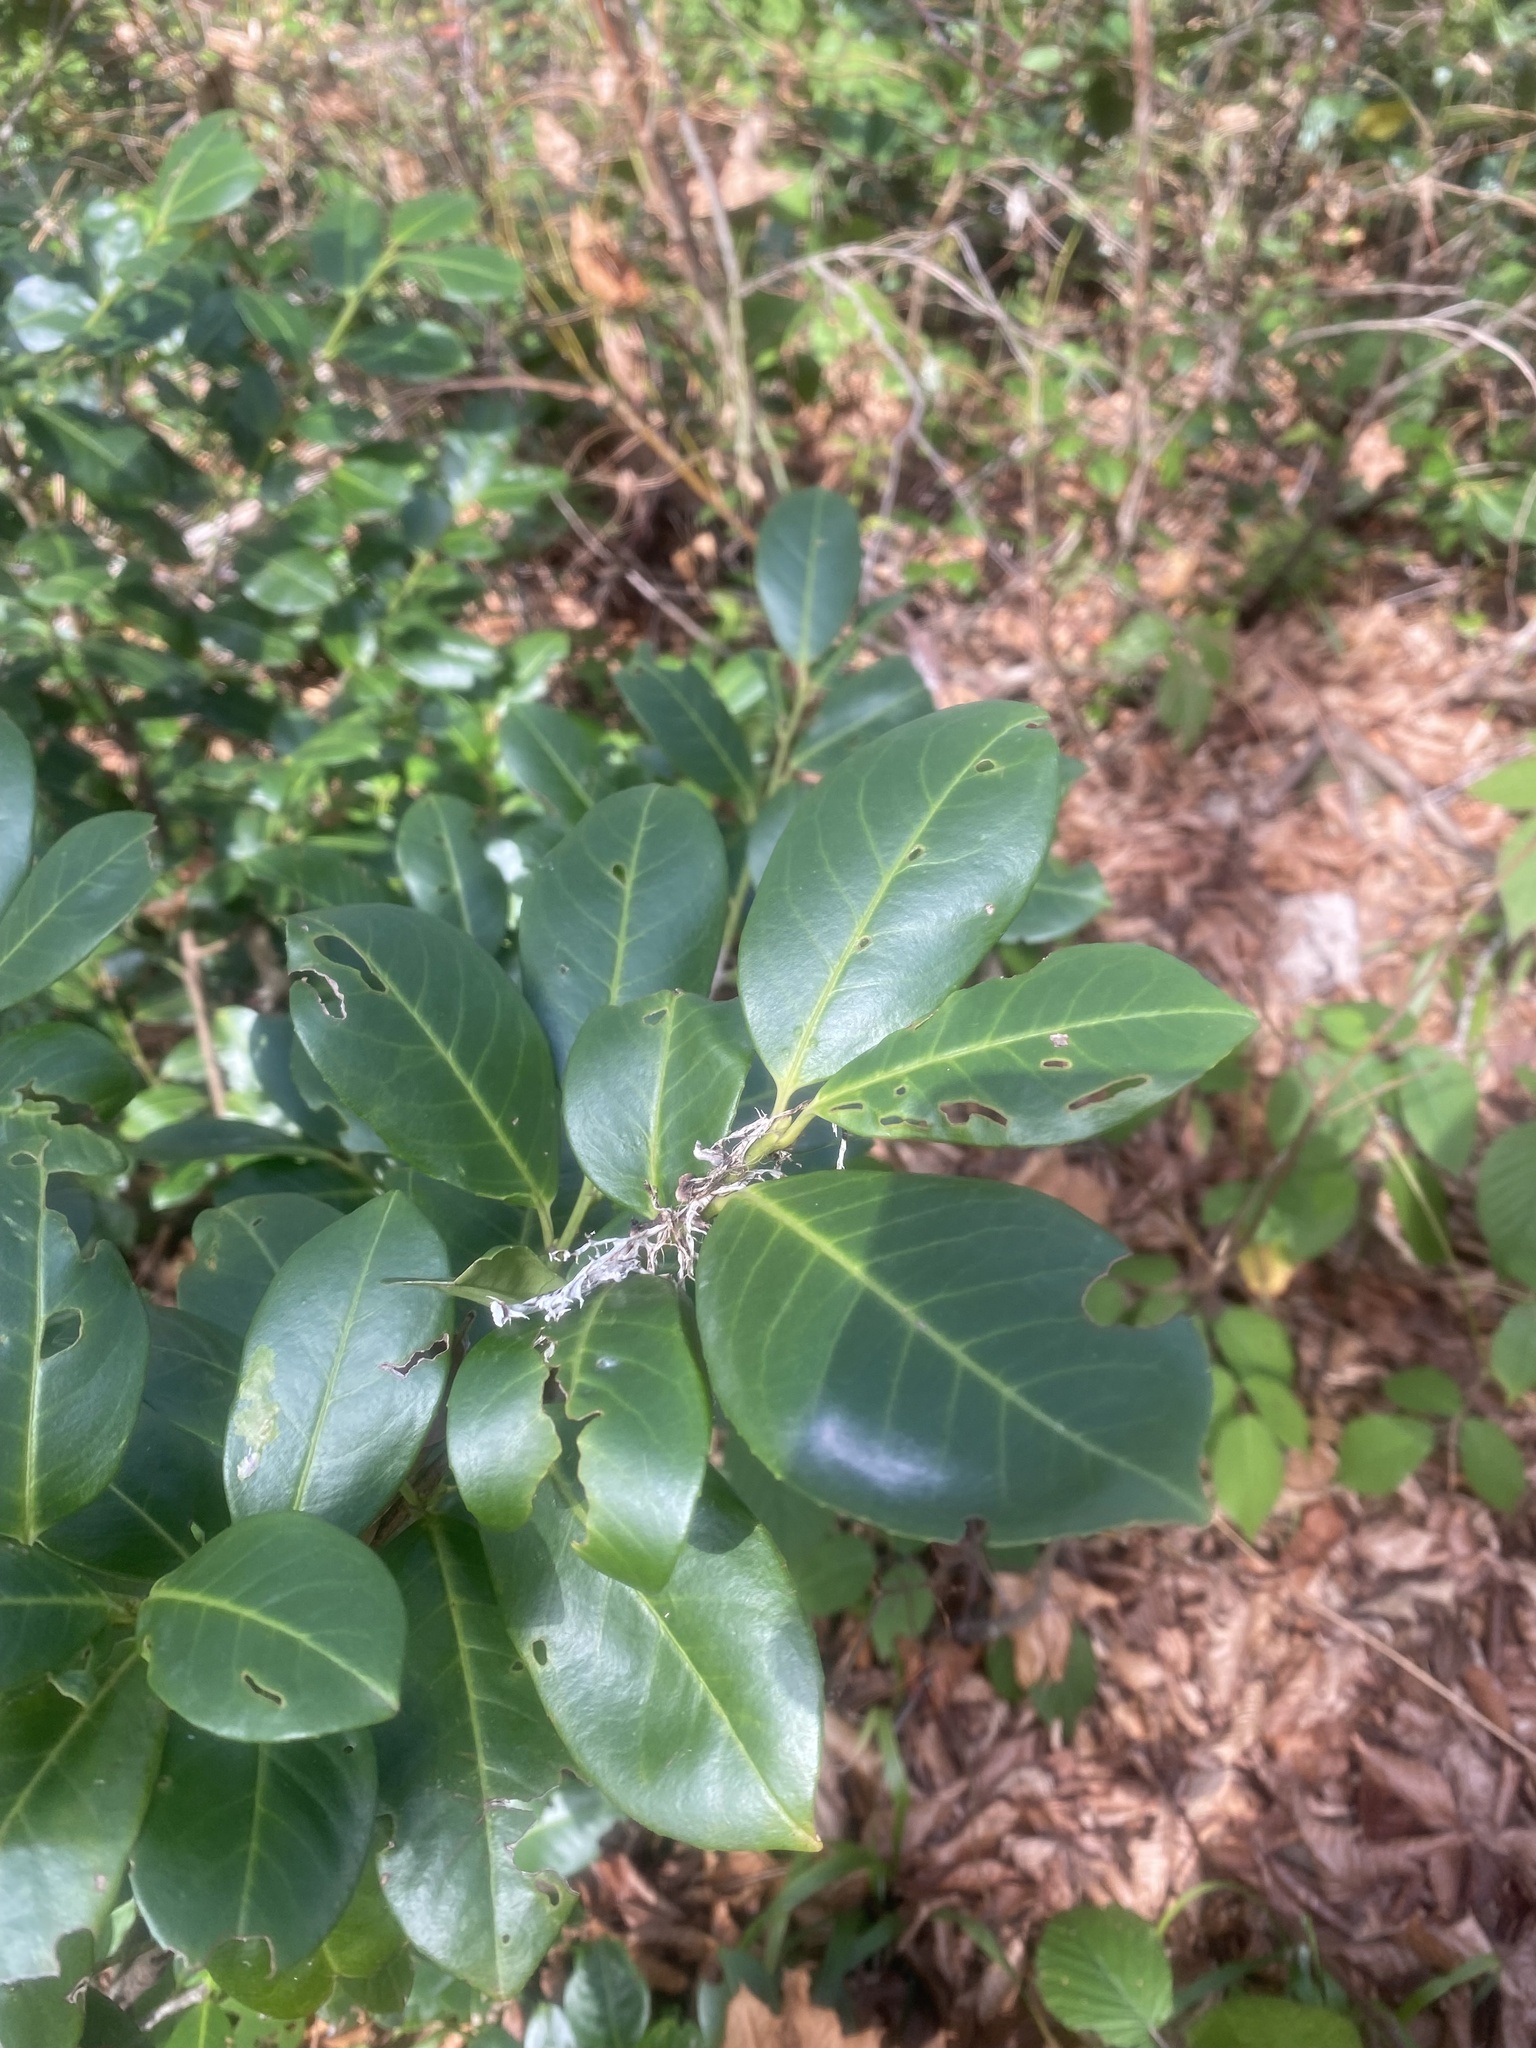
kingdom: Plantae
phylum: Tracheophyta
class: Magnoliopsida
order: Rosales
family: Rosaceae
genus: Prunus
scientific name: Prunus laurocerasus
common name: Cherry laurel
